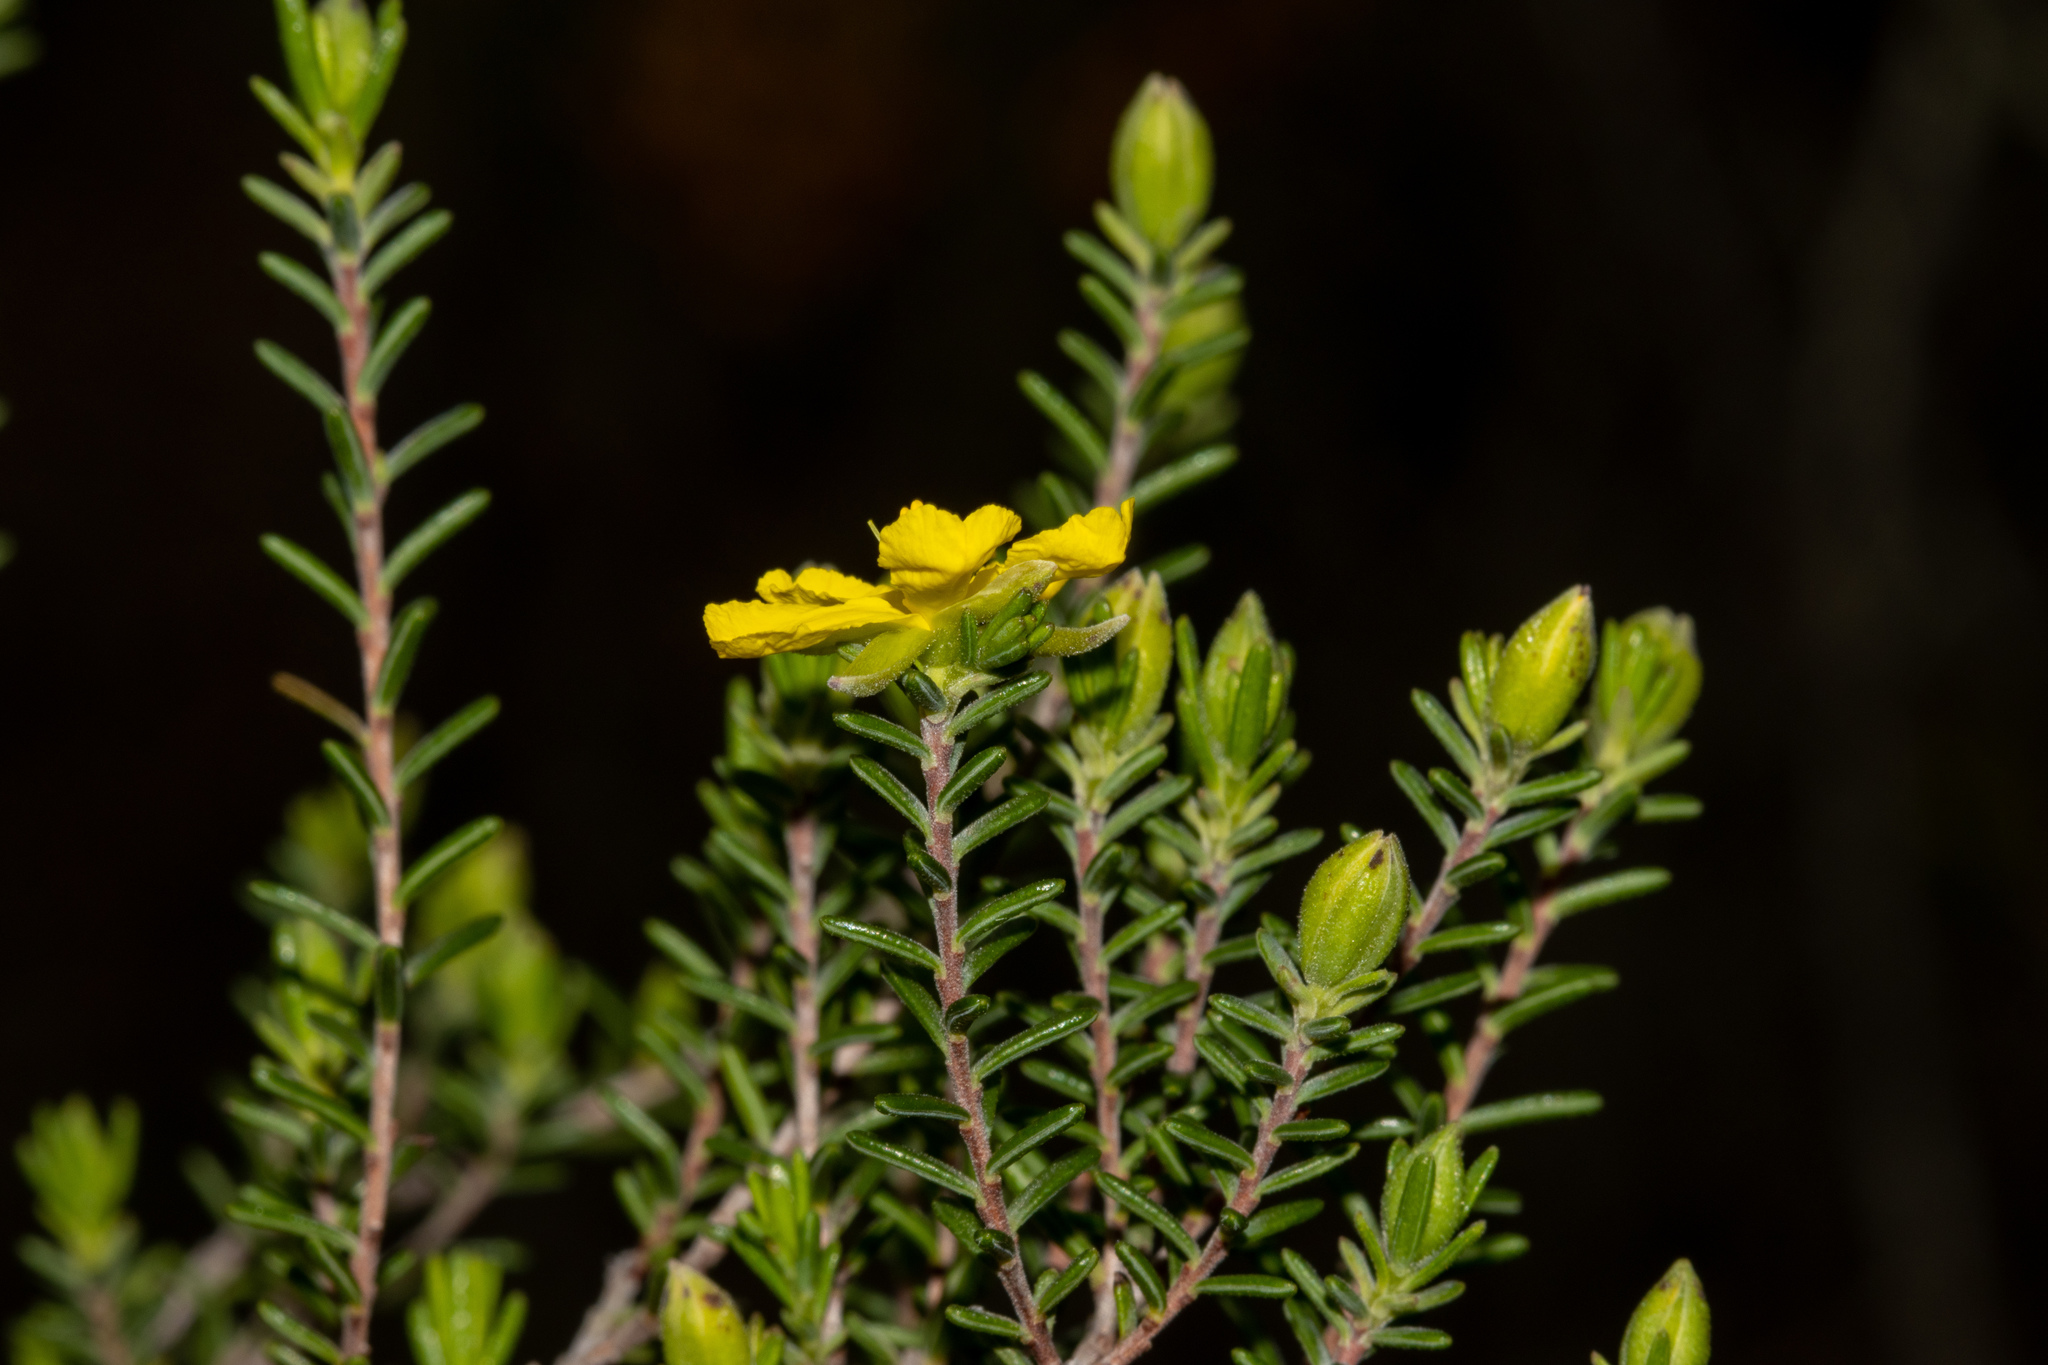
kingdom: Plantae
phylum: Tracheophyta
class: Magnoliopsida
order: Dilleniales
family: Dilleniaceae
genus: Hibbertia
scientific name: Hibbertia devitata
